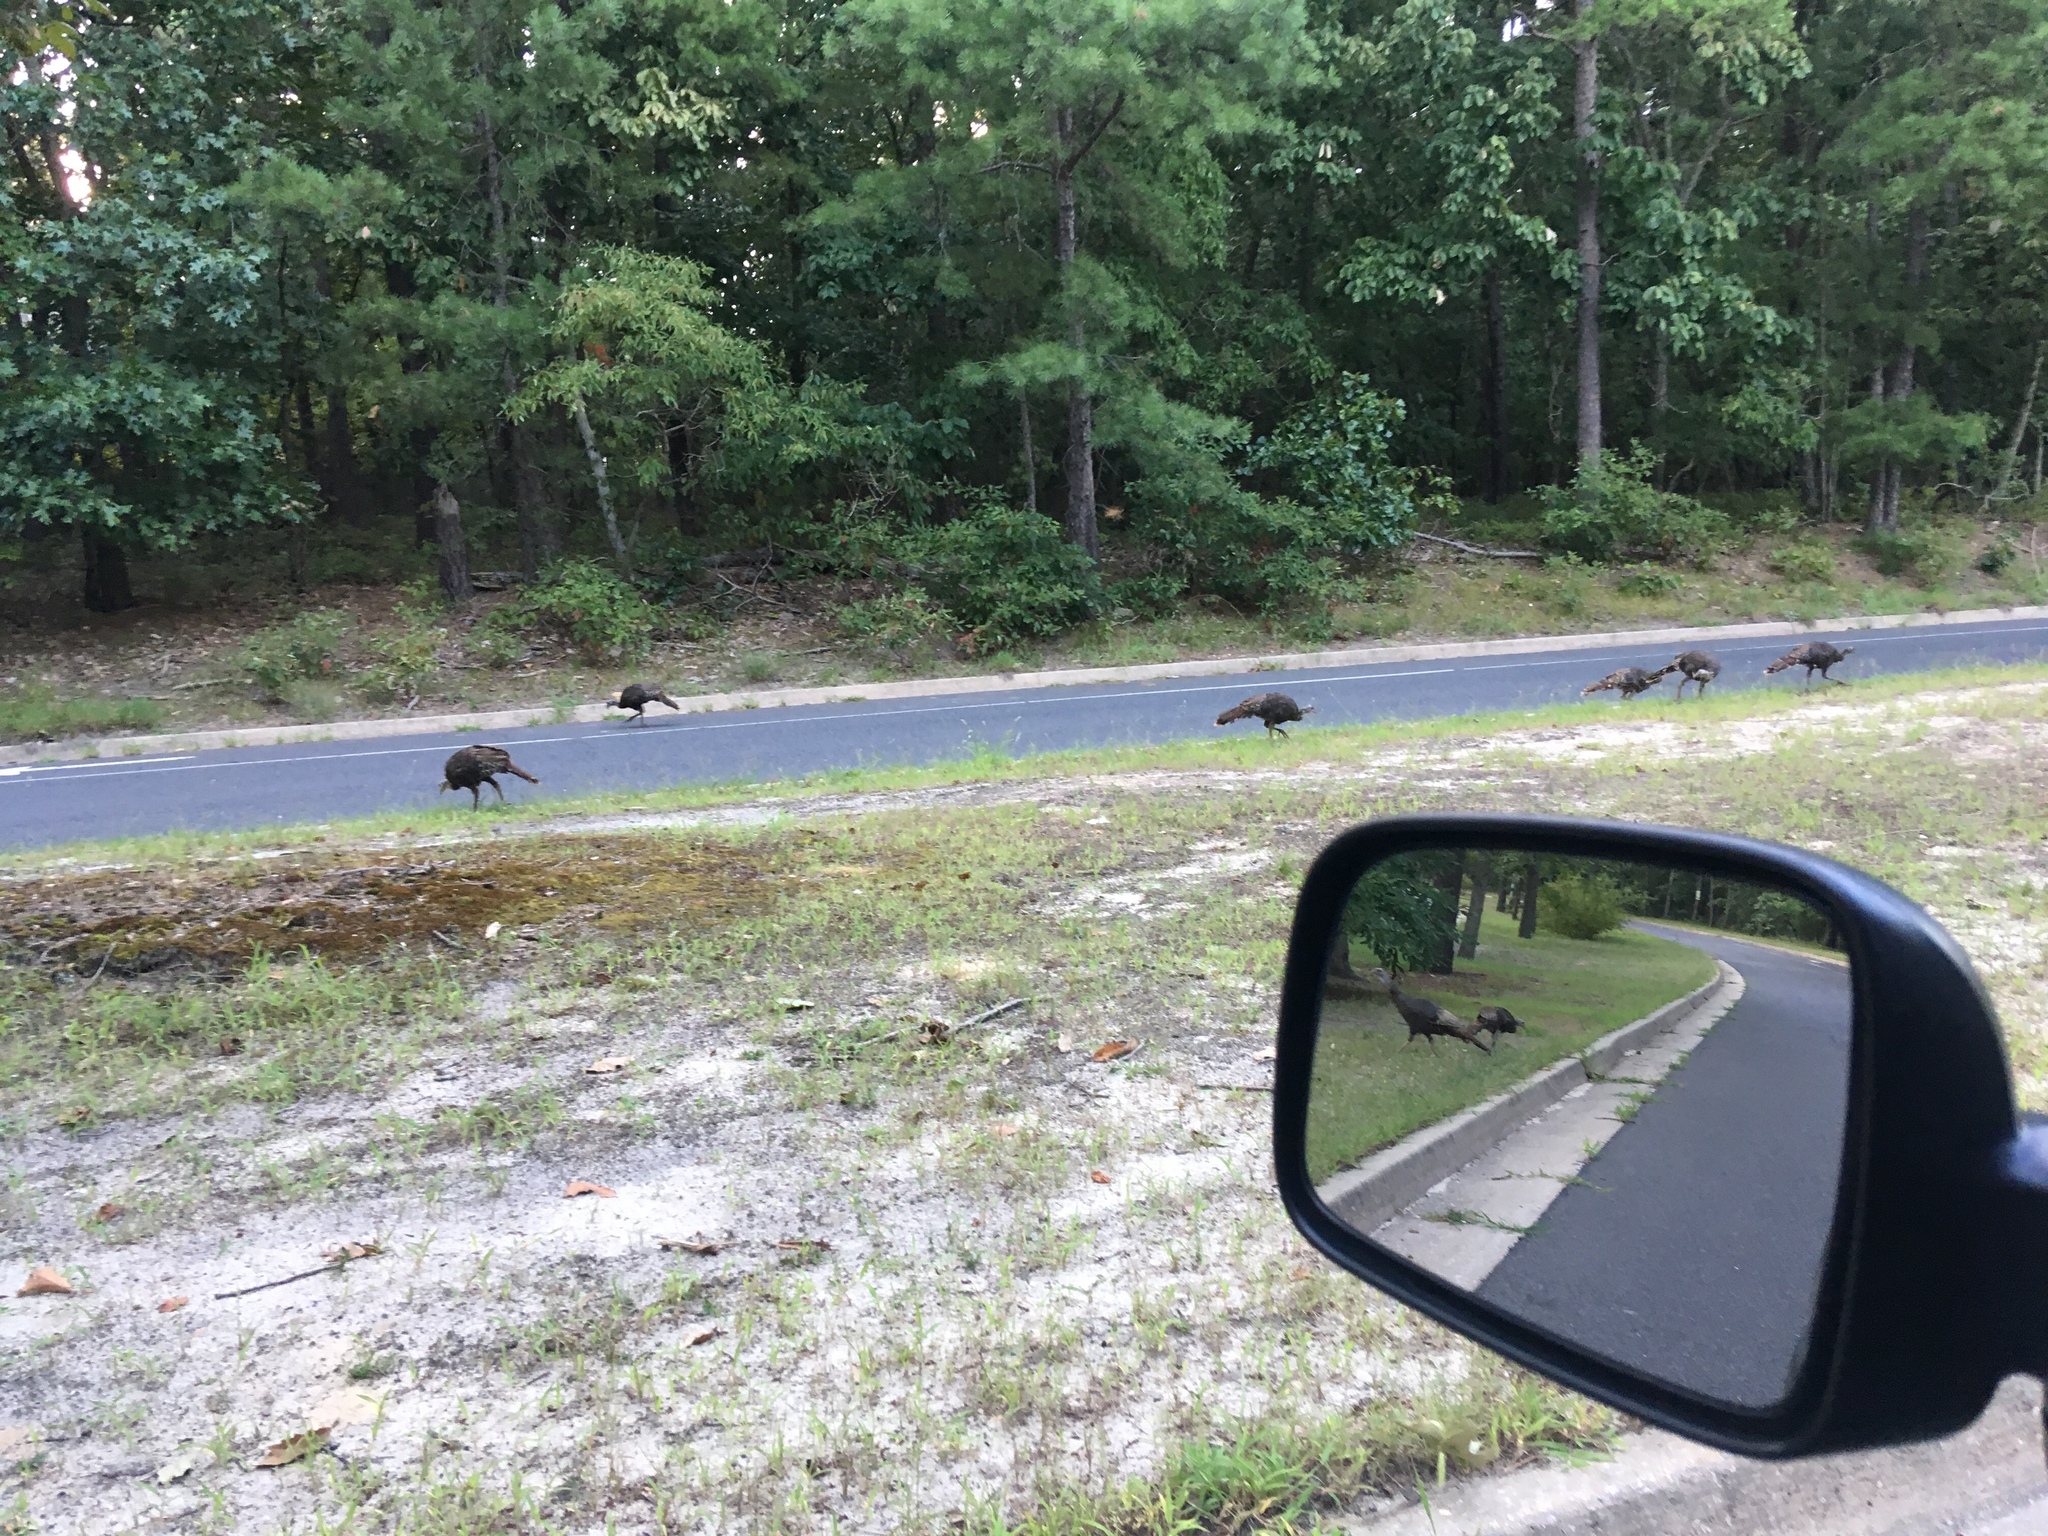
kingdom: Animalia
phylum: Chordata
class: Aves
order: Galliformes
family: Phasianidae
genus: Meleagris
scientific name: Meleagris gallopavo
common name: Wild turkey
